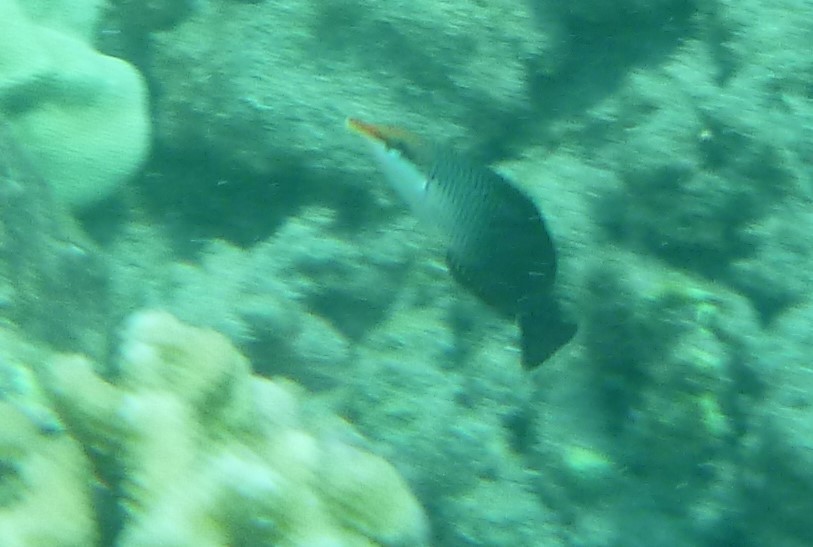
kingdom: Animalia
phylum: Chordata
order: Perciformes
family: Labridae
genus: Gomphosus
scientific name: Gomphosus varius
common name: Bird wrasse
